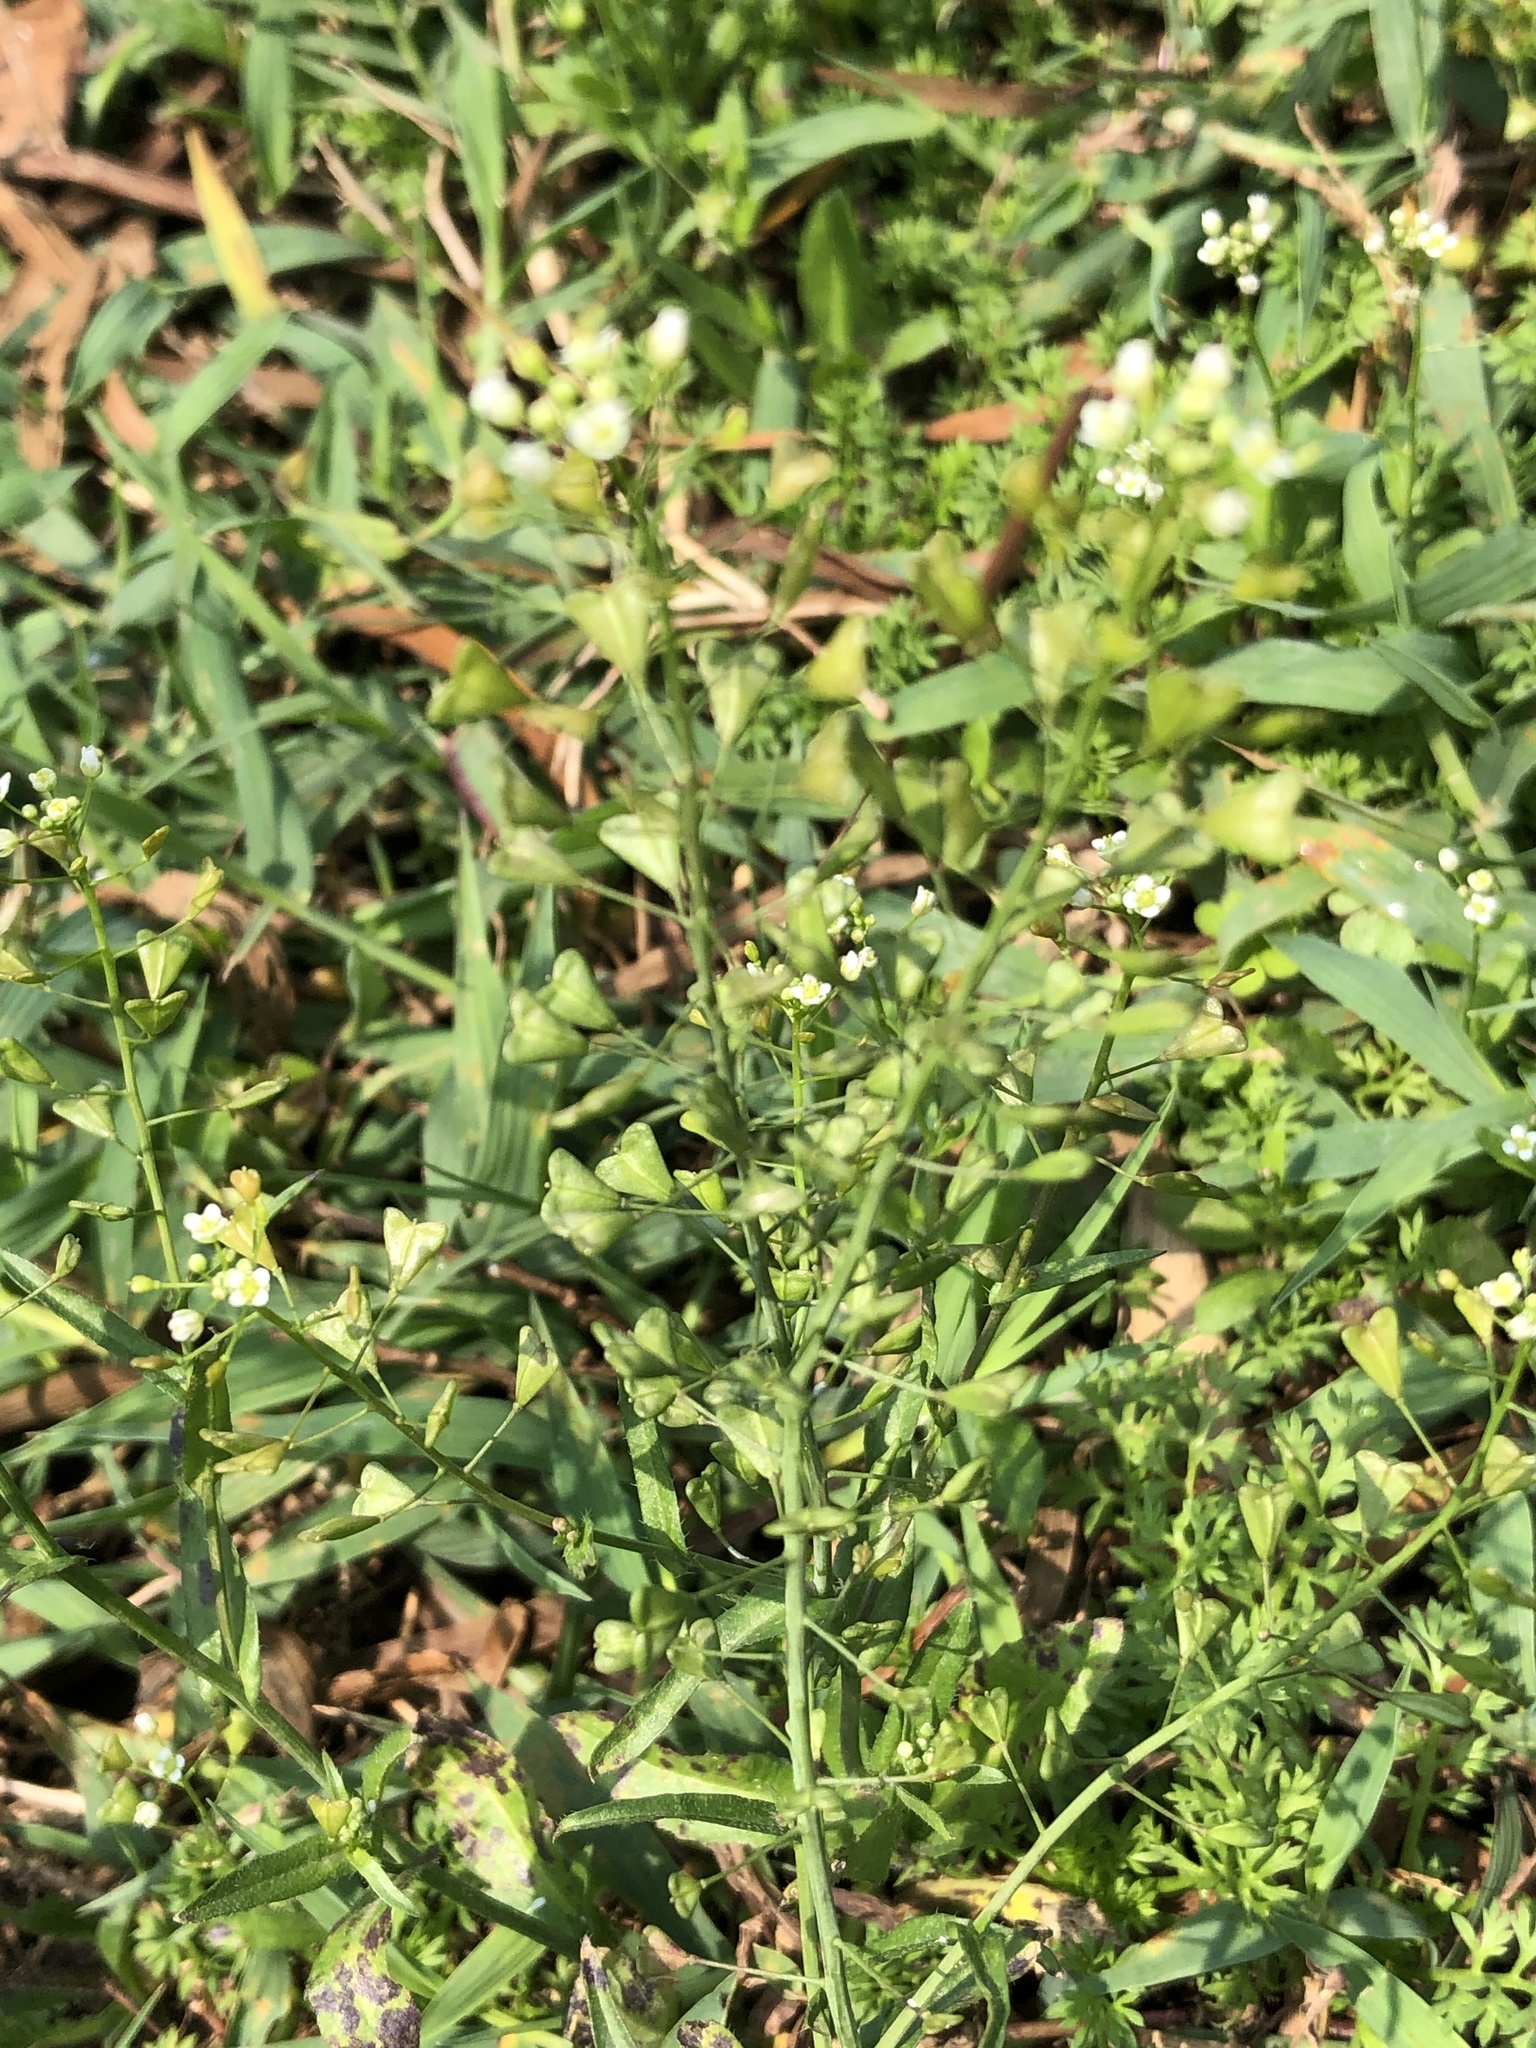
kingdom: Plantae
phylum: Tracheophyta
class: Magnoliopsida
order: Brassicales
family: Brassicaceae
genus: Capsella
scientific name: Capsella bursa-pastoris
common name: Shepherd's purse
